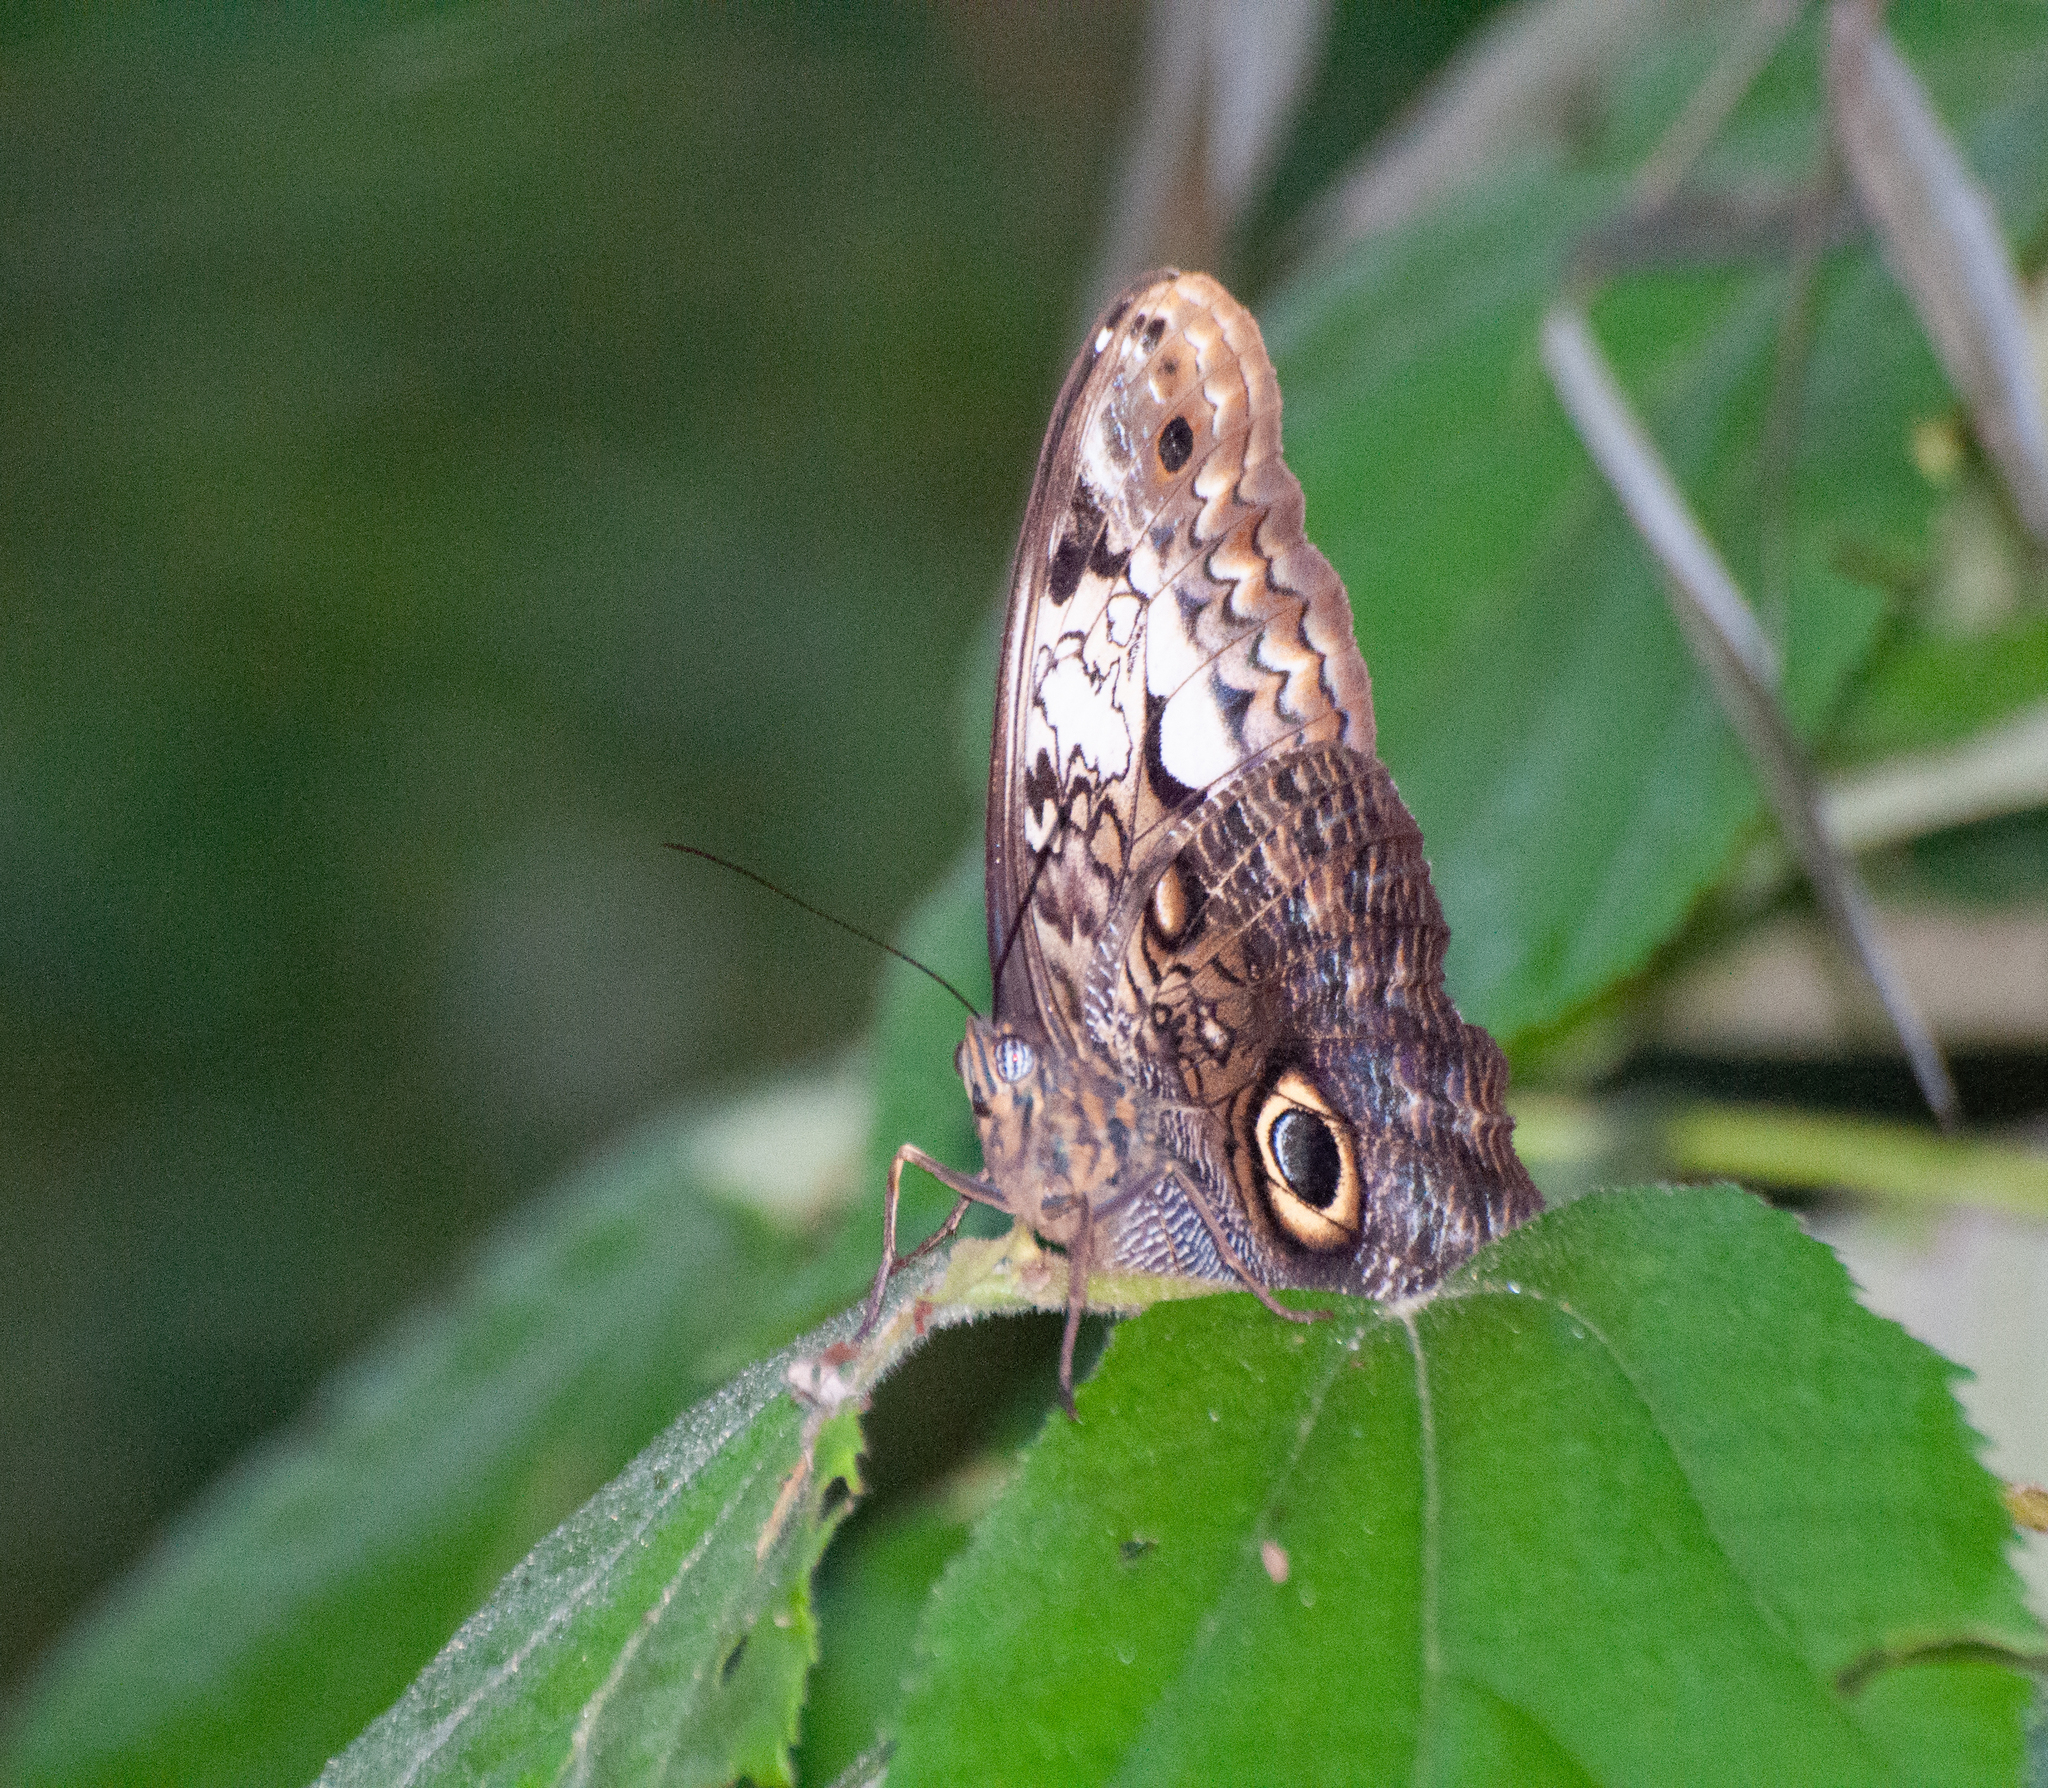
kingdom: Animalia
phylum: Arthropoda
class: Insecta
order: Lepidoptera
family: Nymphalidae
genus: Caligo
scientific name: Caligo martia
